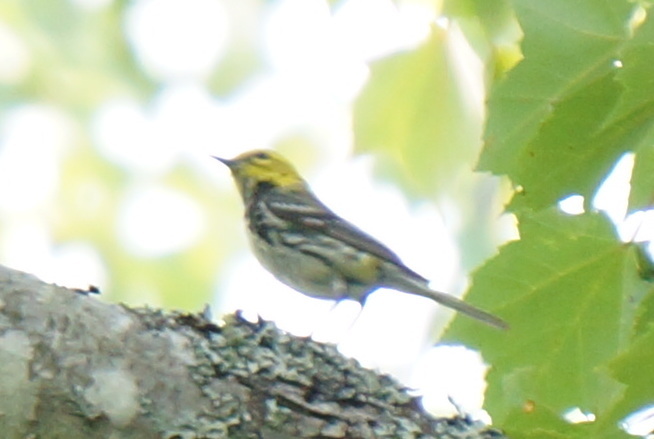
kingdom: Animalia
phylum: Chordata
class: Aves
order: Passeriformes
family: Parulidae
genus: Setophaga
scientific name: Setophaga virens
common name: Black-throated green warbler
